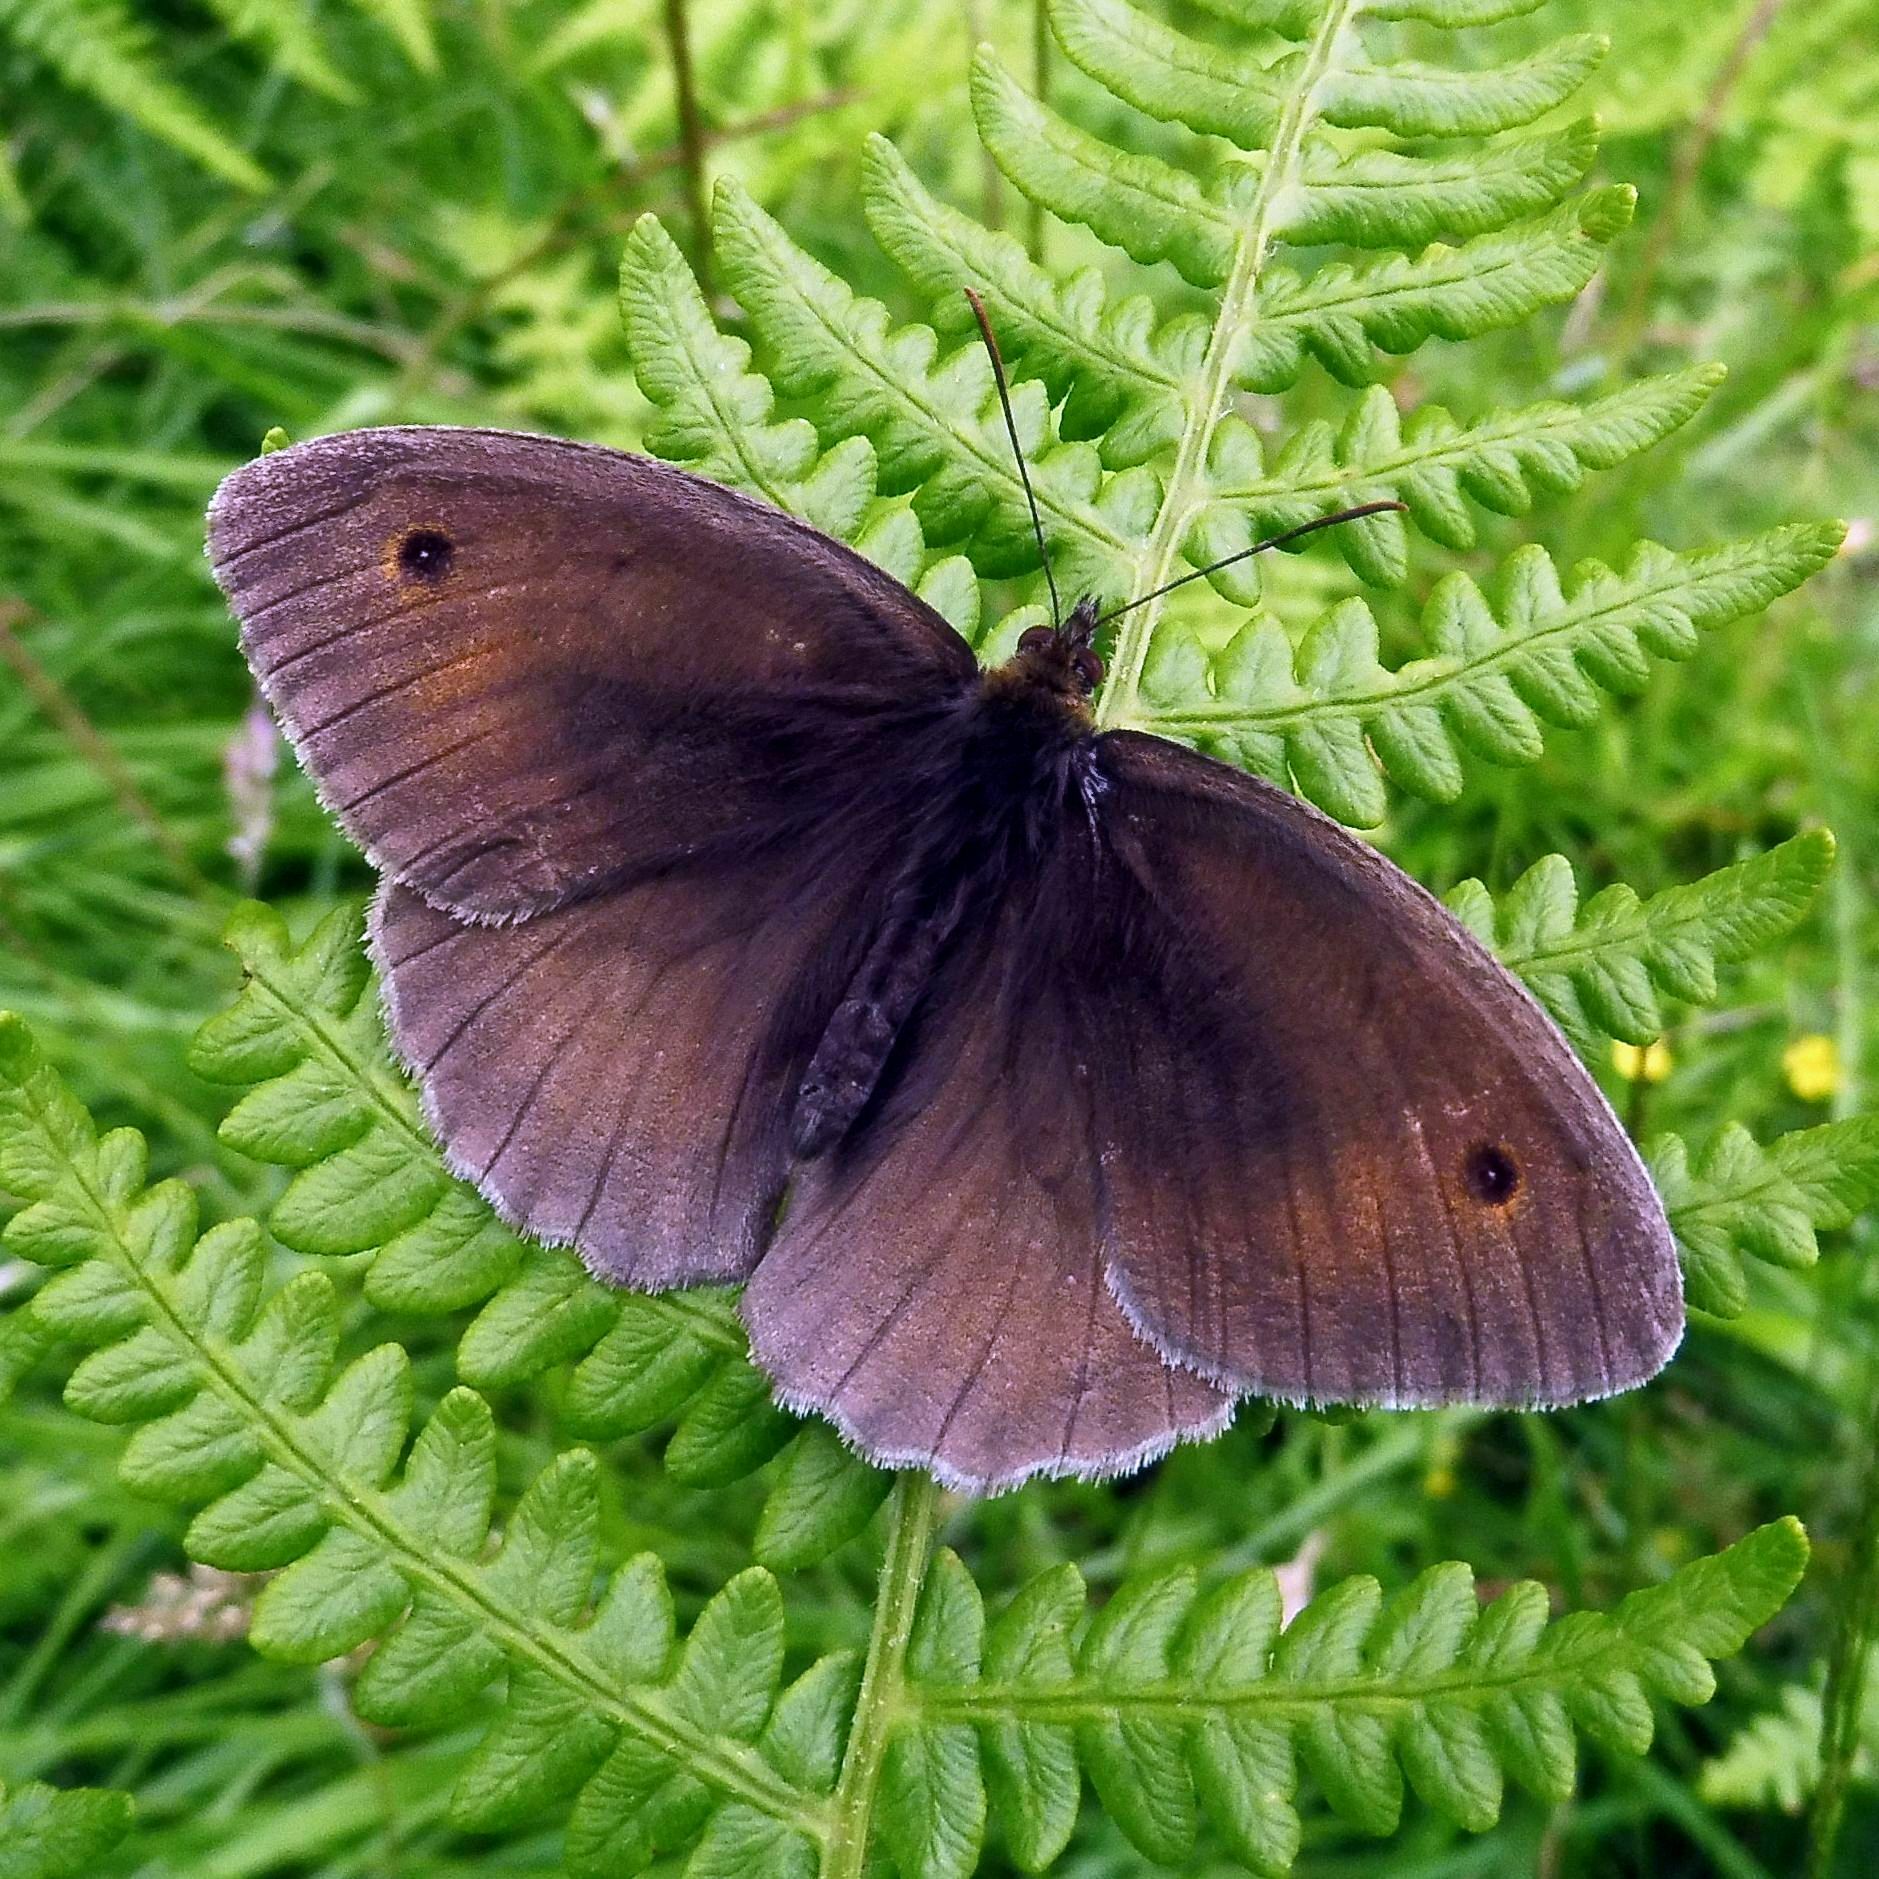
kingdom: Animalia
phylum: Arthropoda
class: Insecta
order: Lepidoptera
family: Nymphalidae
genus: Maniola
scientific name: Maniola jurtina
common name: Meadow brown
